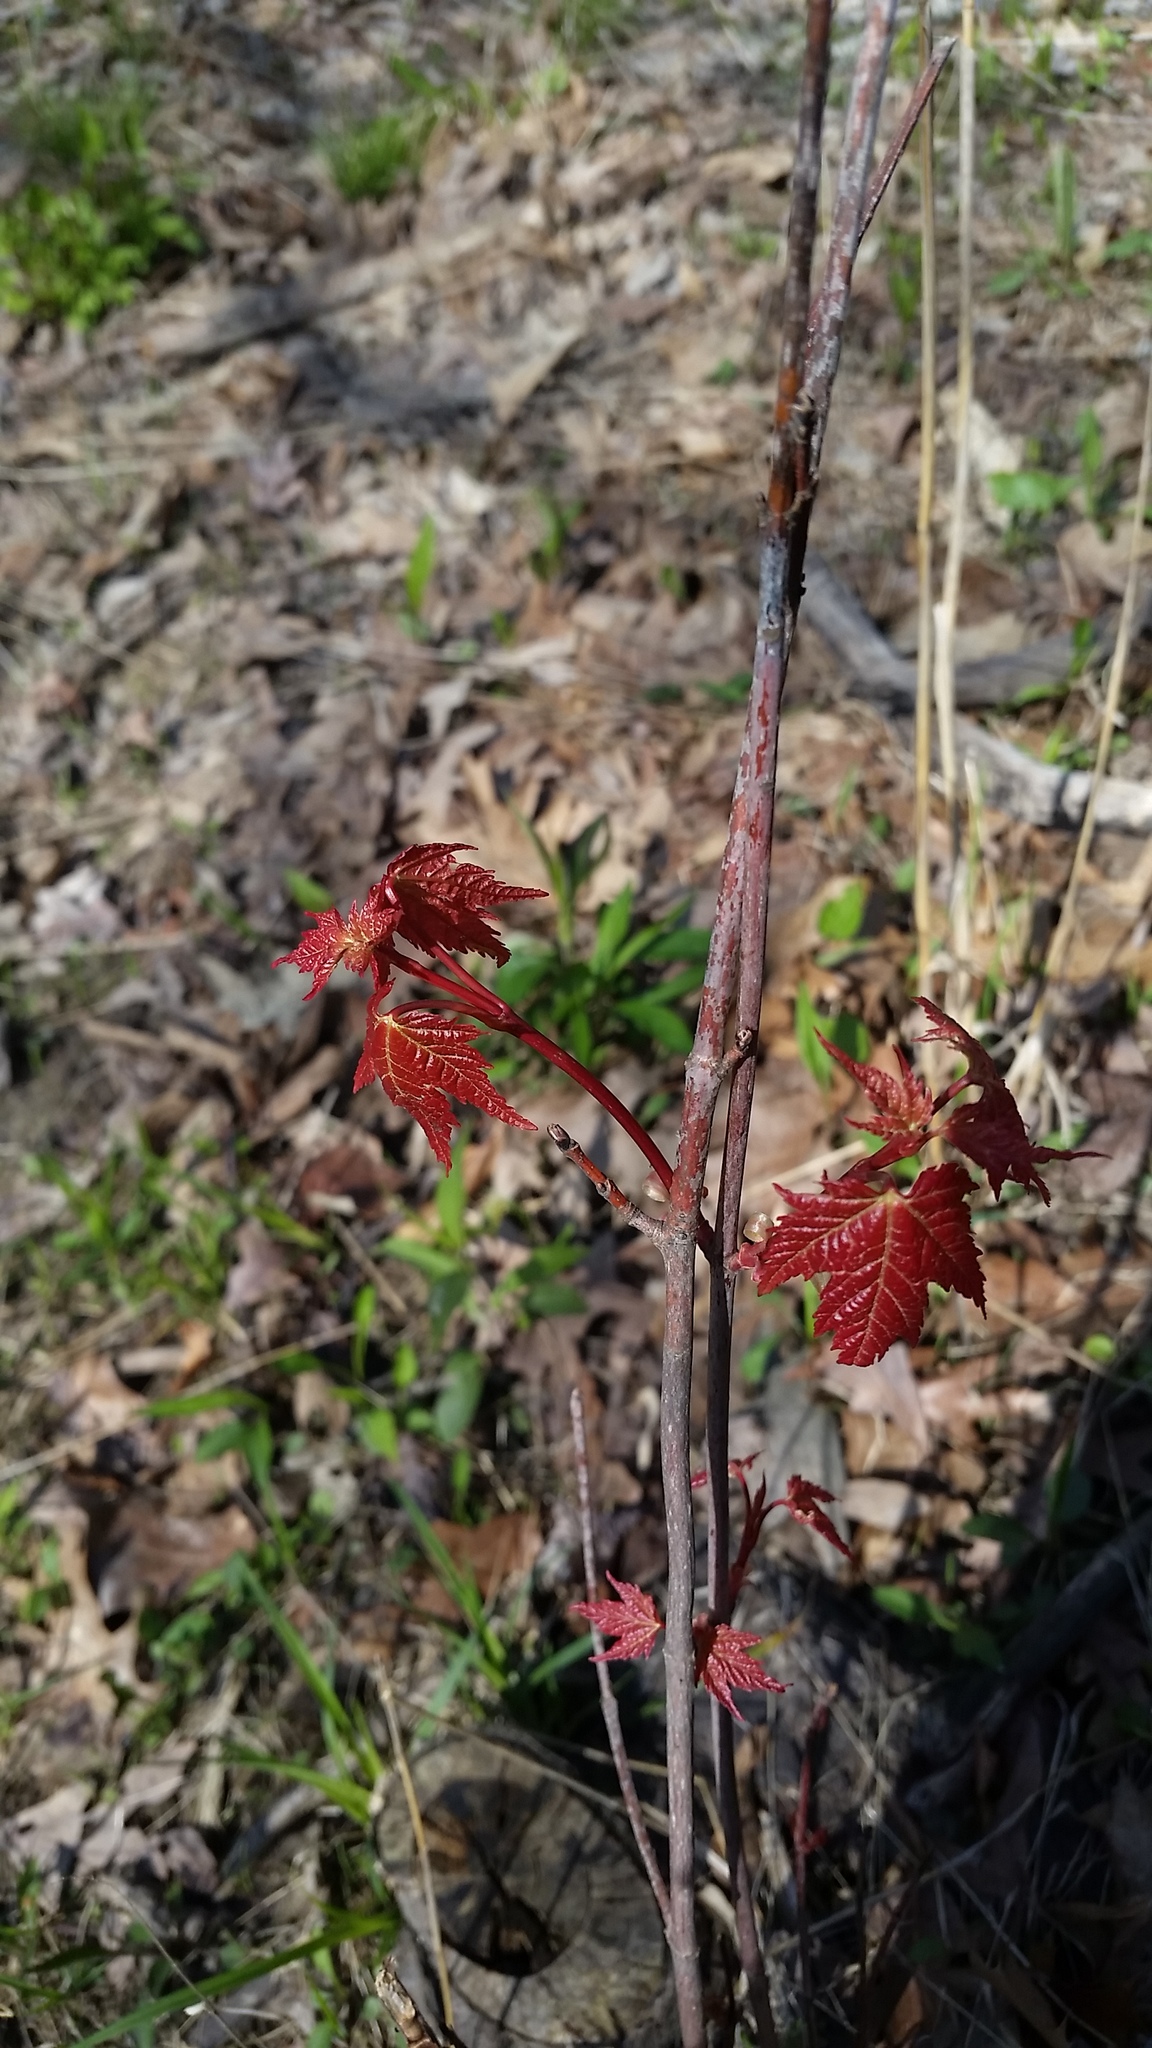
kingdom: Plantae
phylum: Tracheophyta
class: Magnoliopsida
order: Sapindales
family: Sapindaceae
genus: Acer
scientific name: Acer saccharinum
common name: Silver maple
